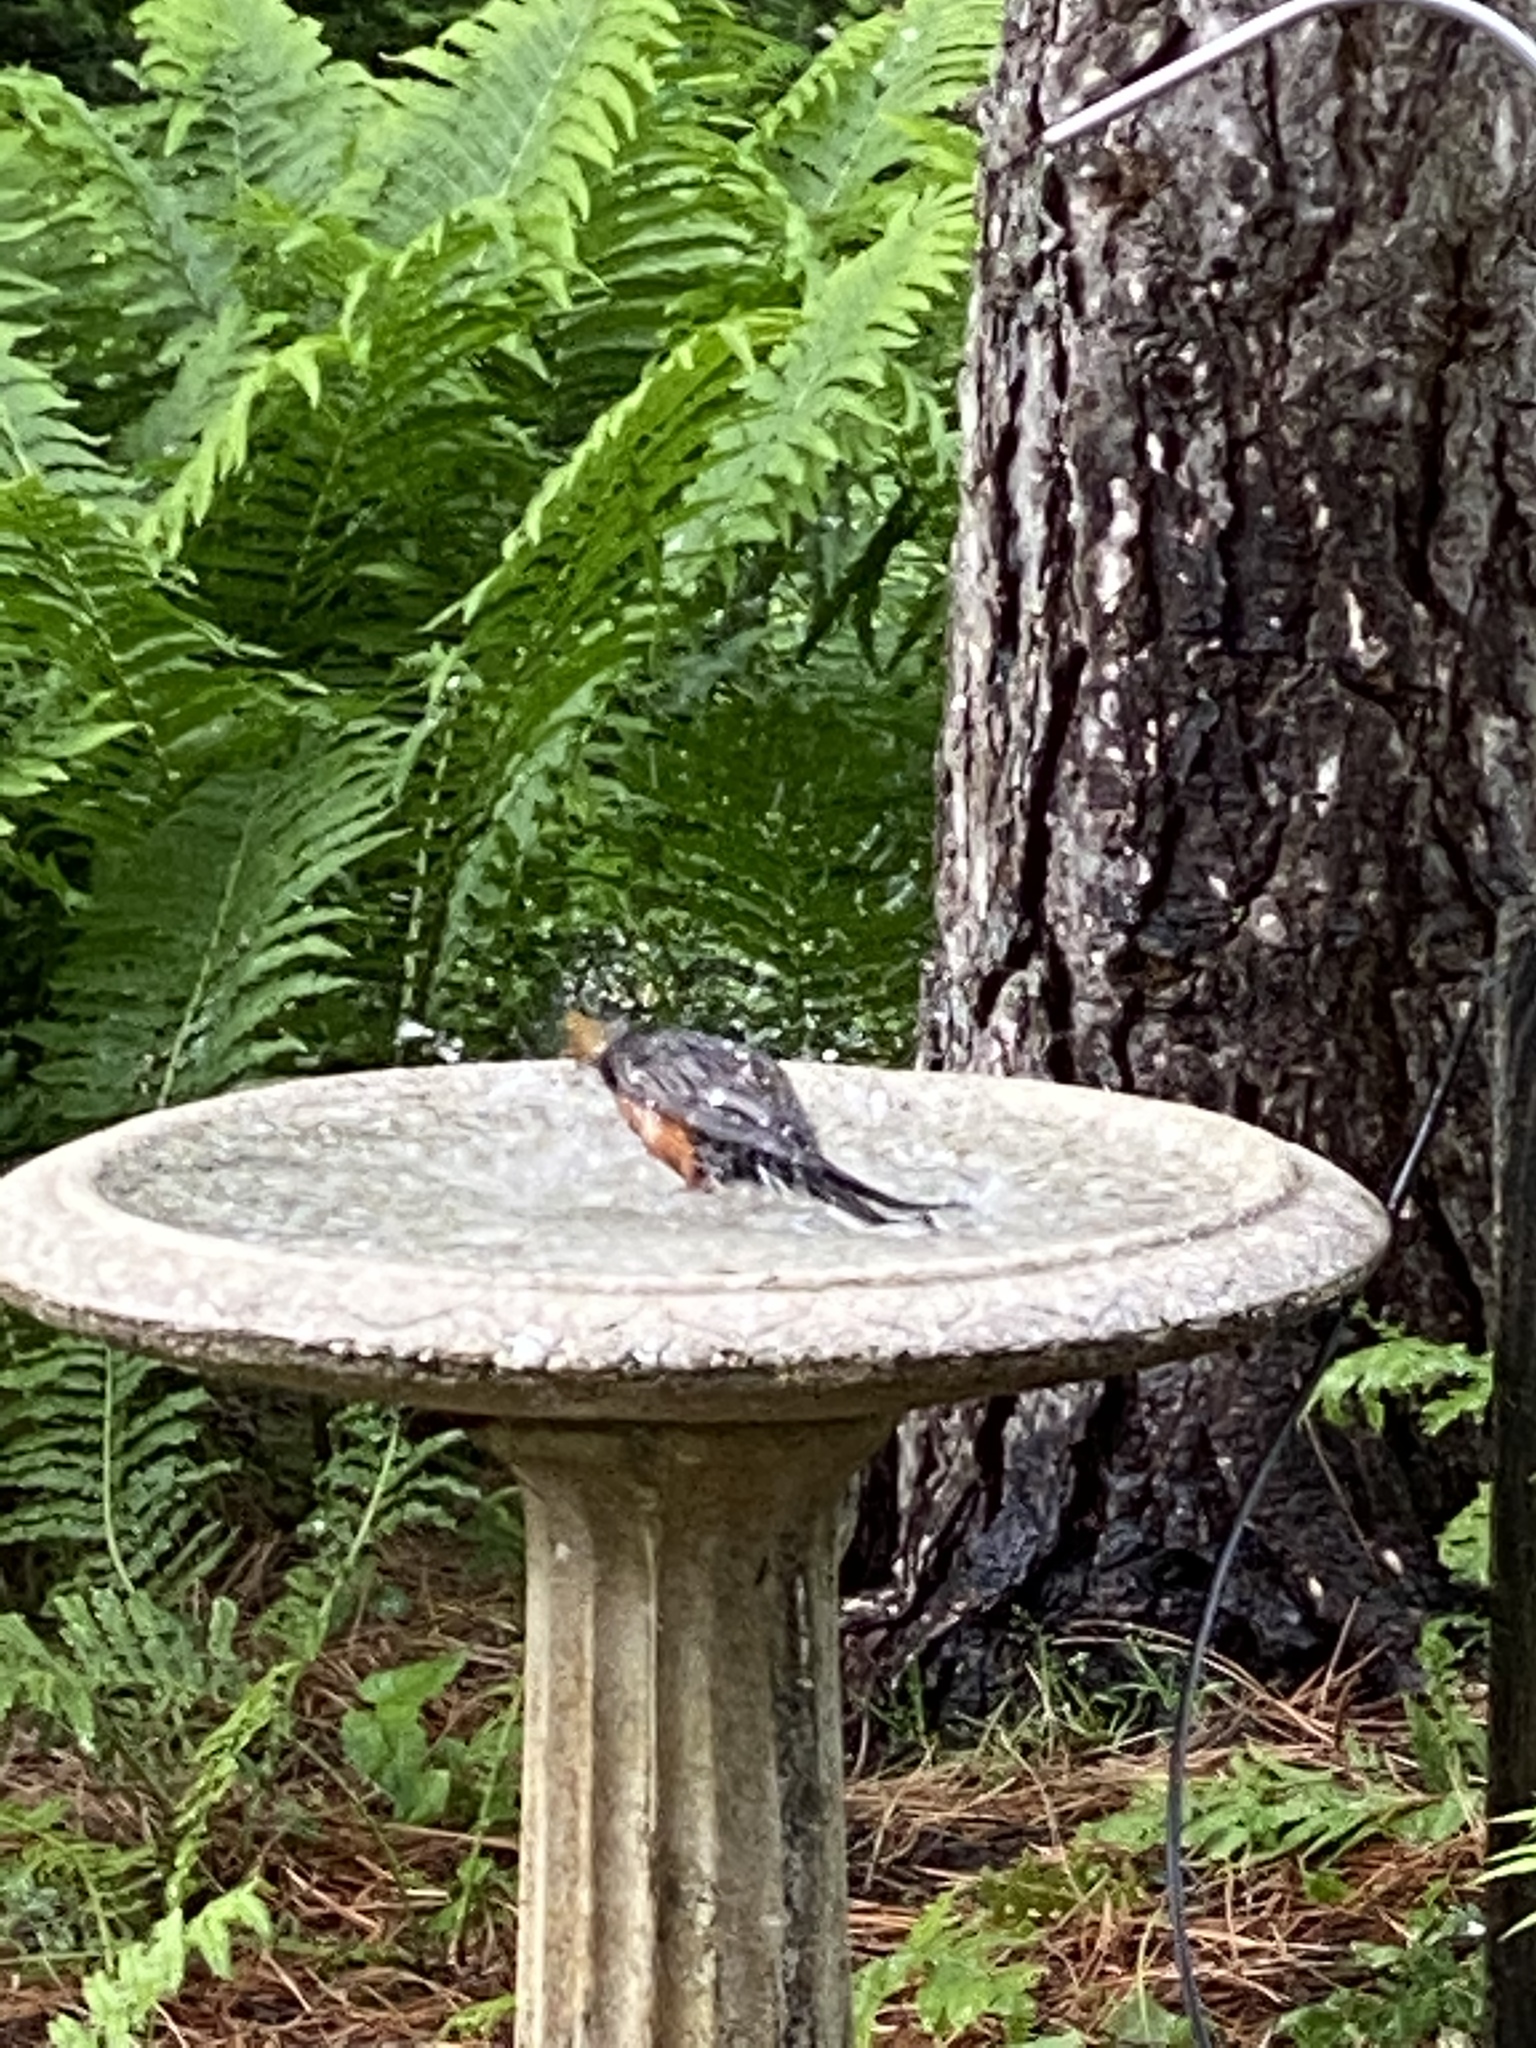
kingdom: Animalia
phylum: Chordata
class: Aves
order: Passeriformes
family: Turdidae
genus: Turdus
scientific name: Turdus migratorius
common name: American robin
